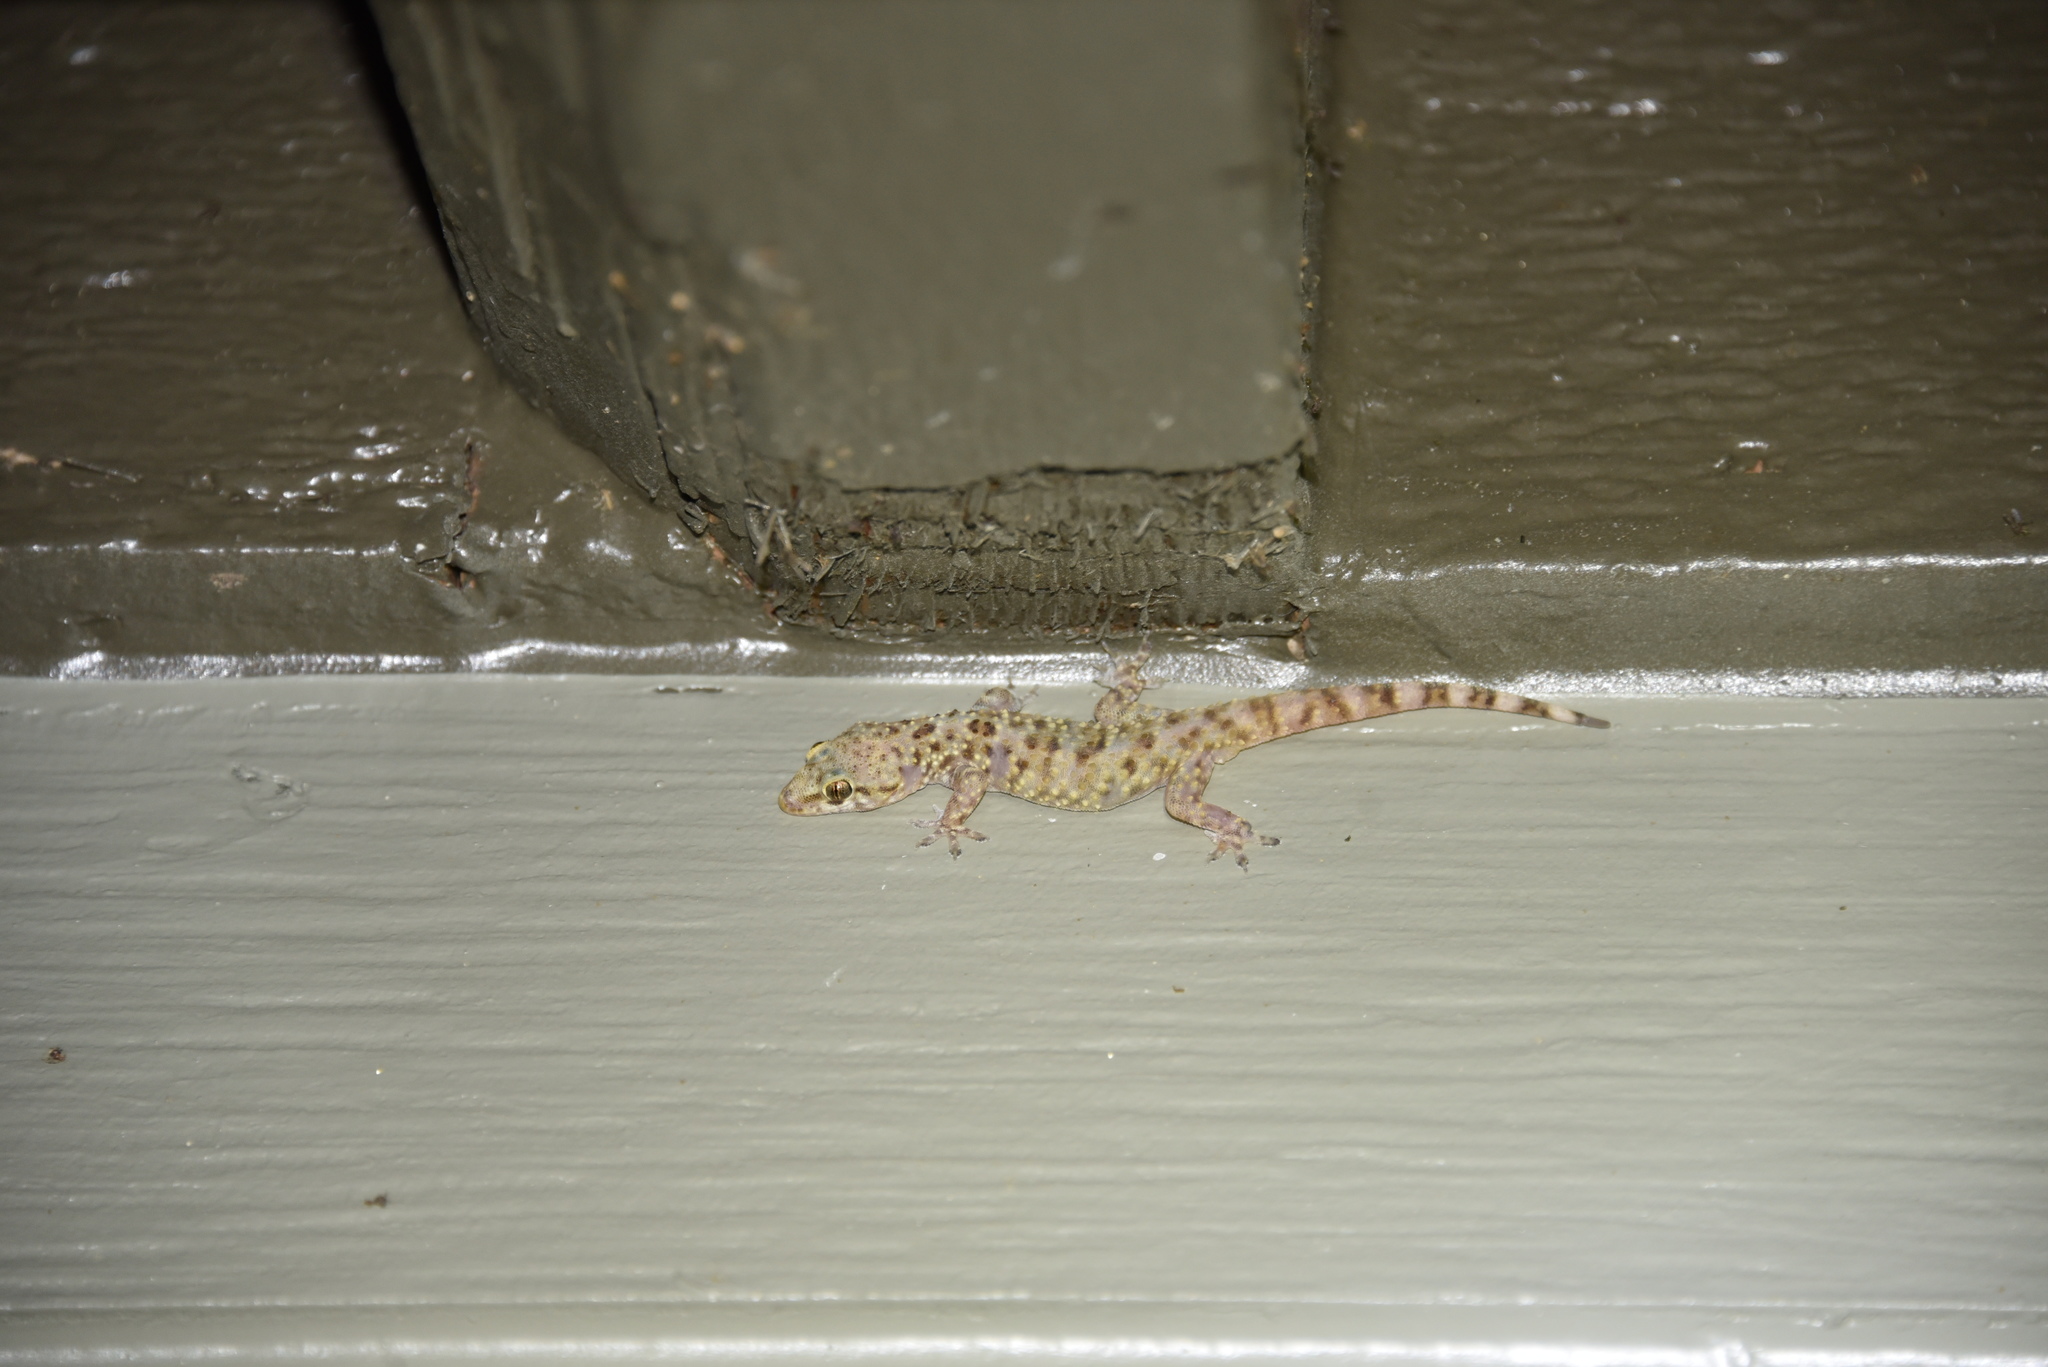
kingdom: Animalia
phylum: Chordata
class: Squamata
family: Gekkonidae
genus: Hemidactylus
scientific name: Hemidactylus turcicus
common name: Turkish gecko
